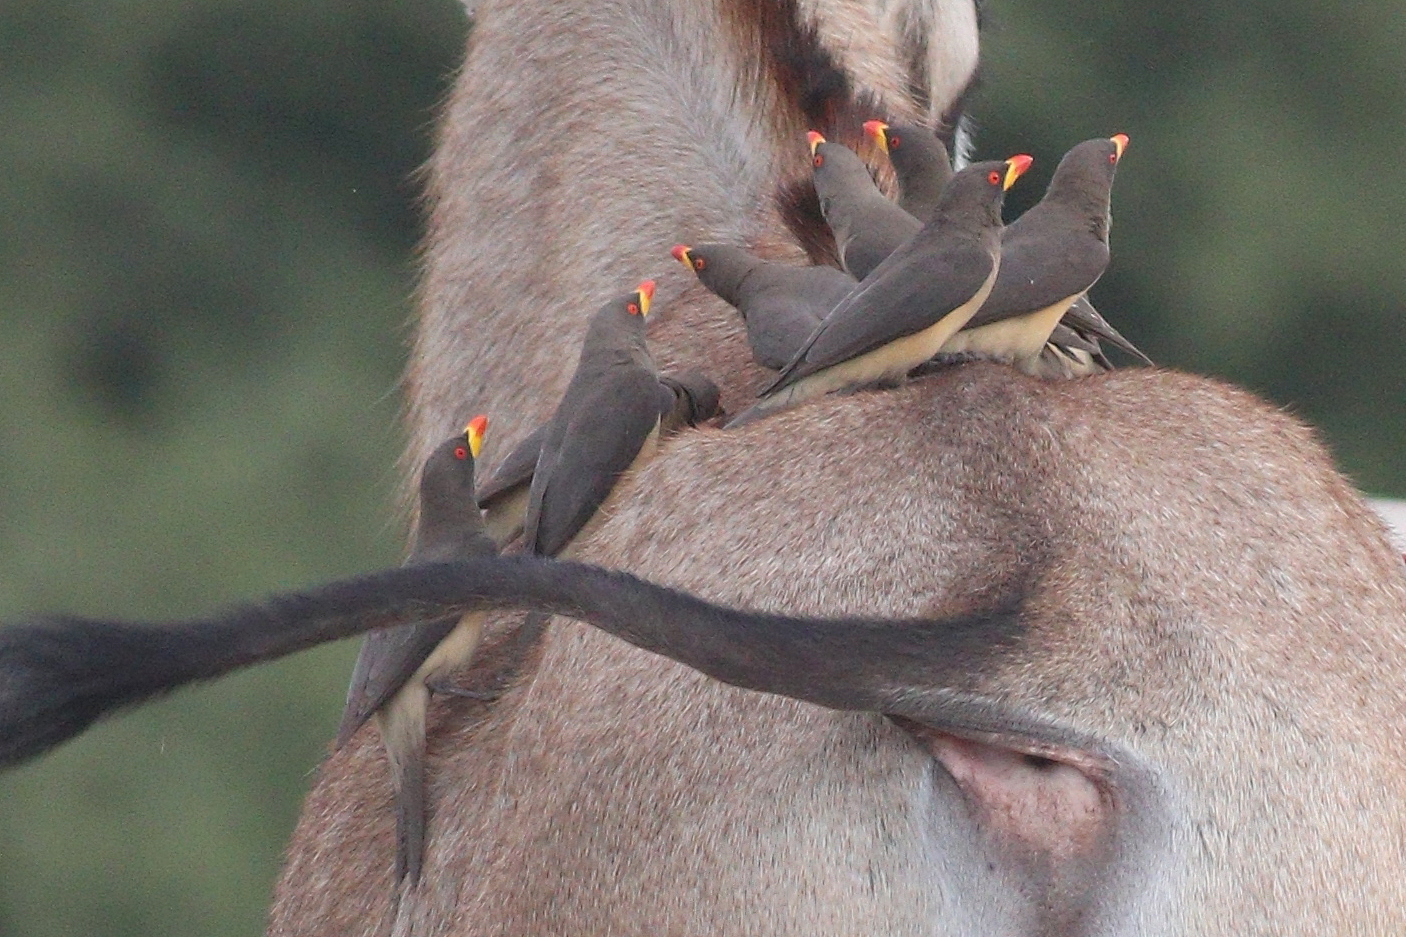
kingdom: Animalia
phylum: Chordata
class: Aves
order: Passeriformes
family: Buphagidae
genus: Buphagus
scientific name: Buphagus africanus
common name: Yellow-billed oxpecker
